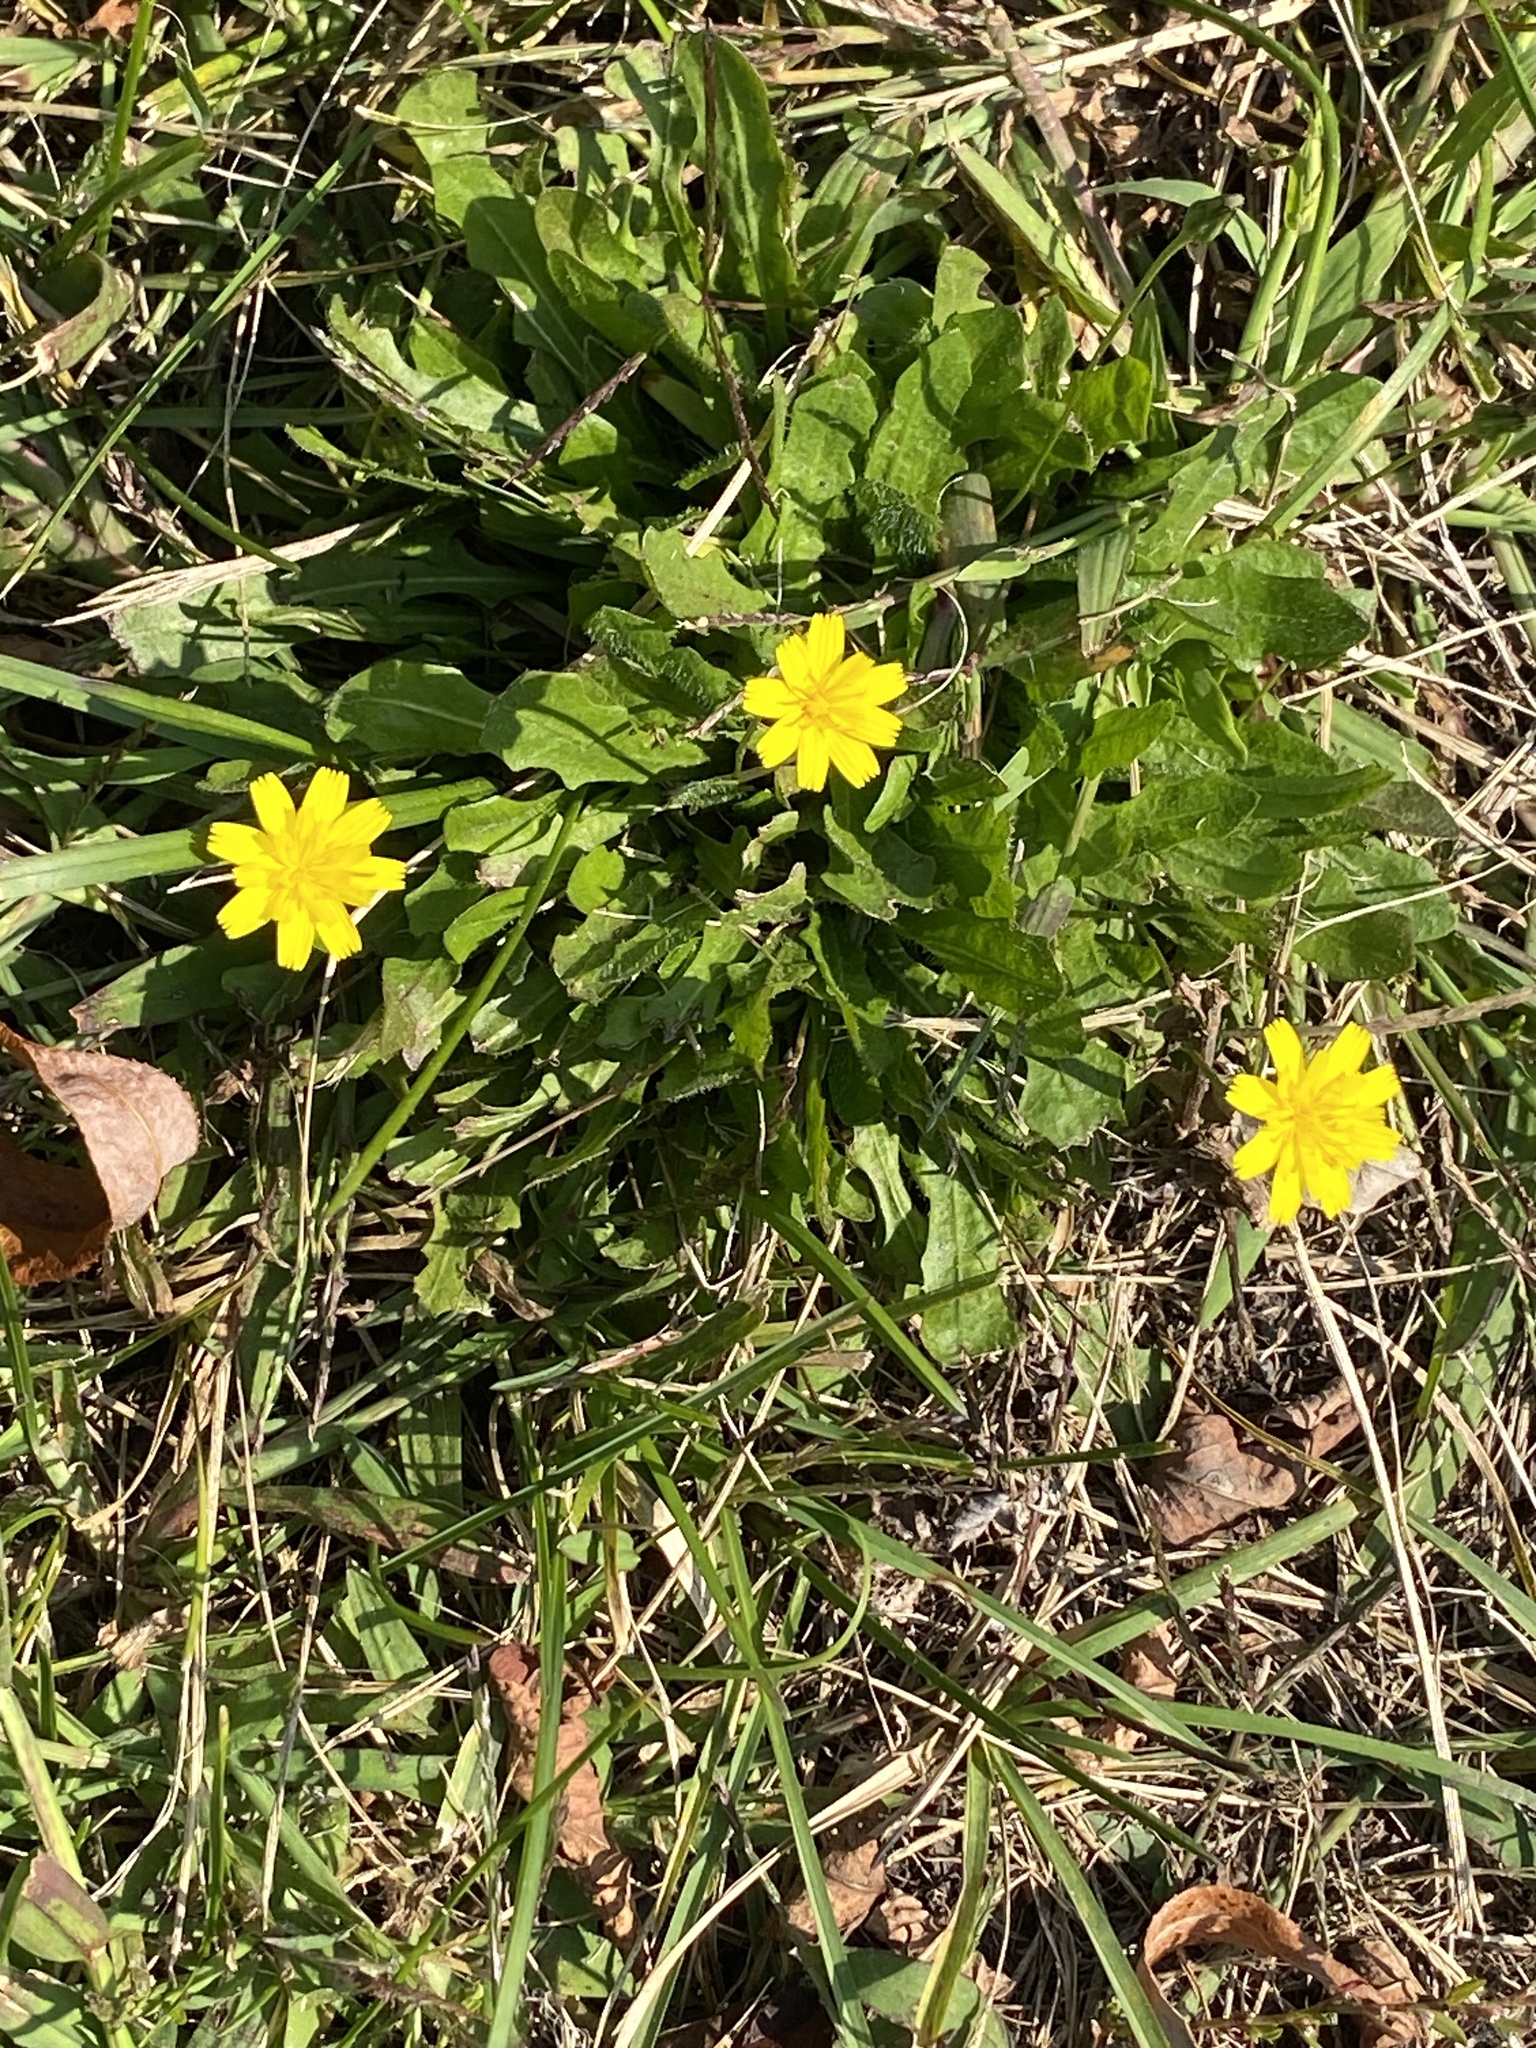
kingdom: Plantae
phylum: Tracheophyta
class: Magnoliopsida
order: Asterales
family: Asteraceae
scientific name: Asteraceae
